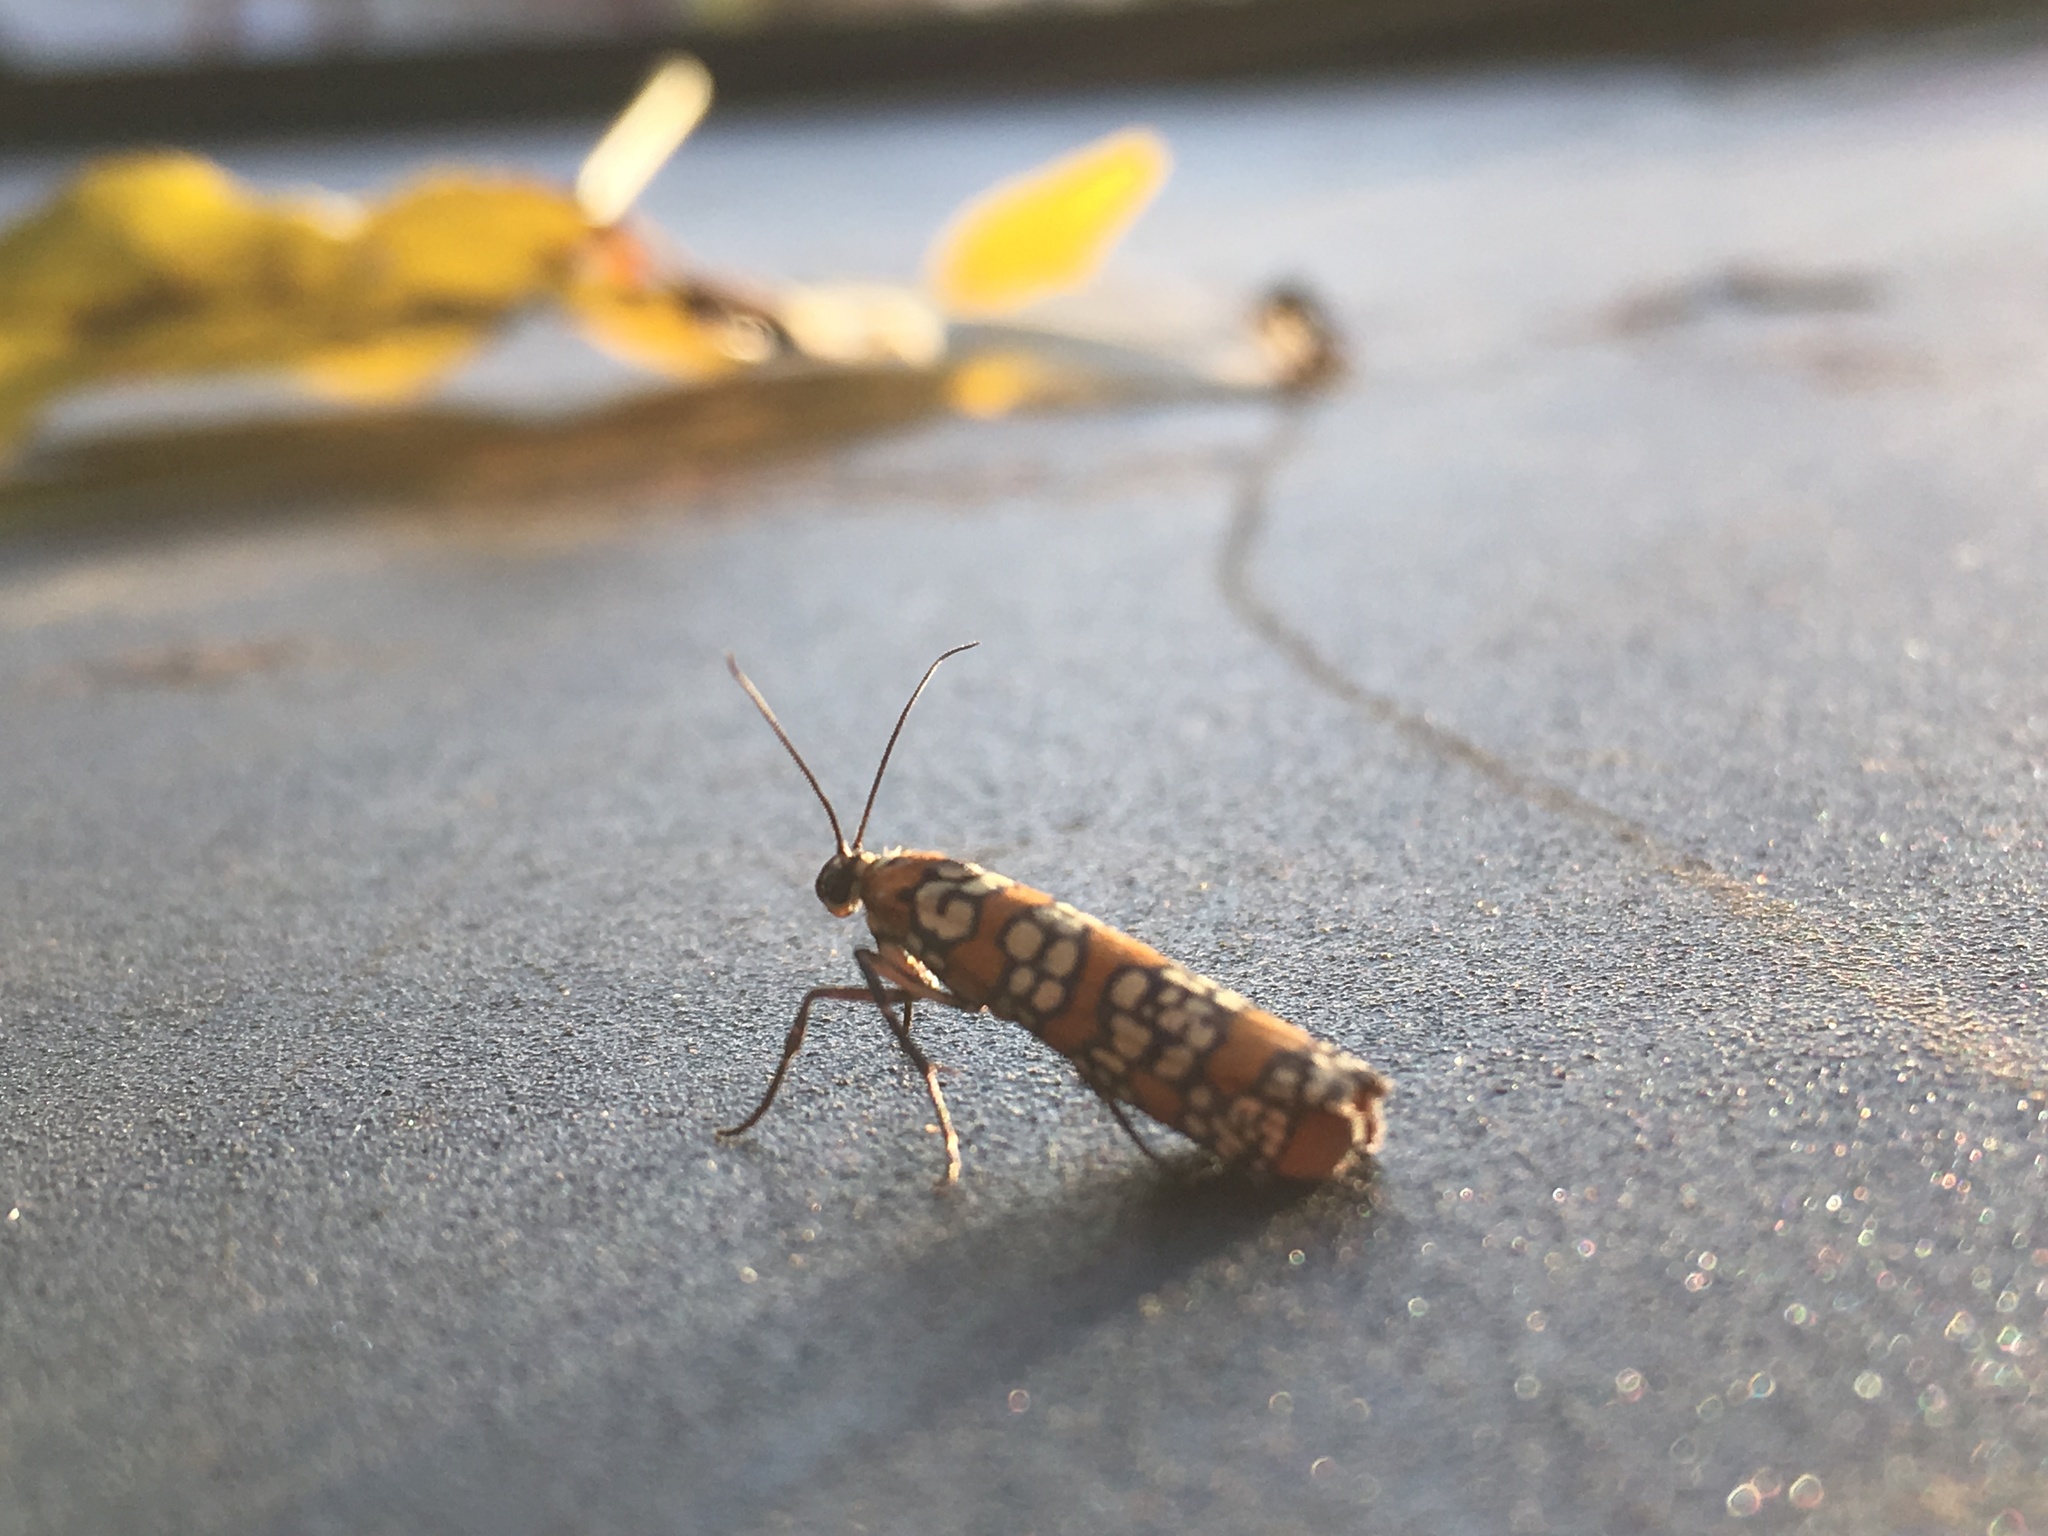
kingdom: Animalia
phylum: Arthropoda
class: Insecta
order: Lepidoptera
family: Attevidae
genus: Atteva
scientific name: Atteva punctella
